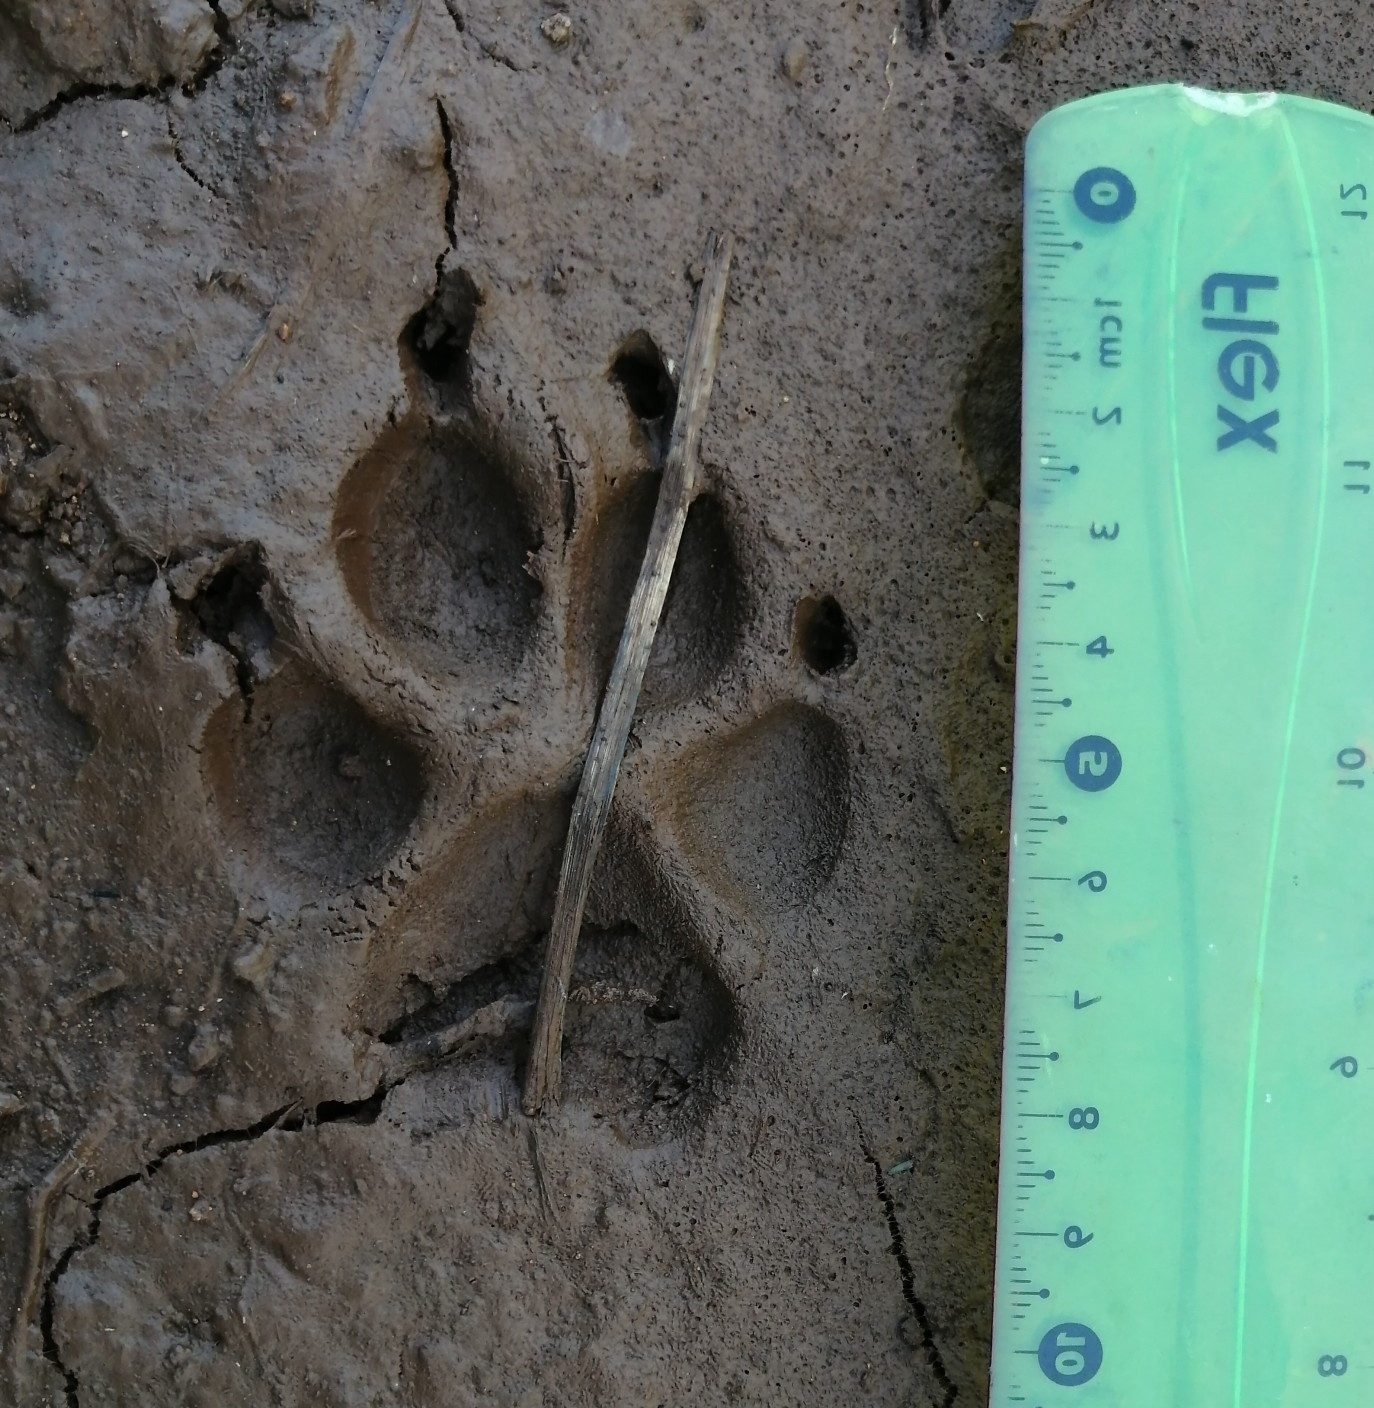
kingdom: Animalia
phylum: Chordata
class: Mammalia
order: Carnivora
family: Canidae
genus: Canis
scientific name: Canis lupus
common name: Gray wolf
